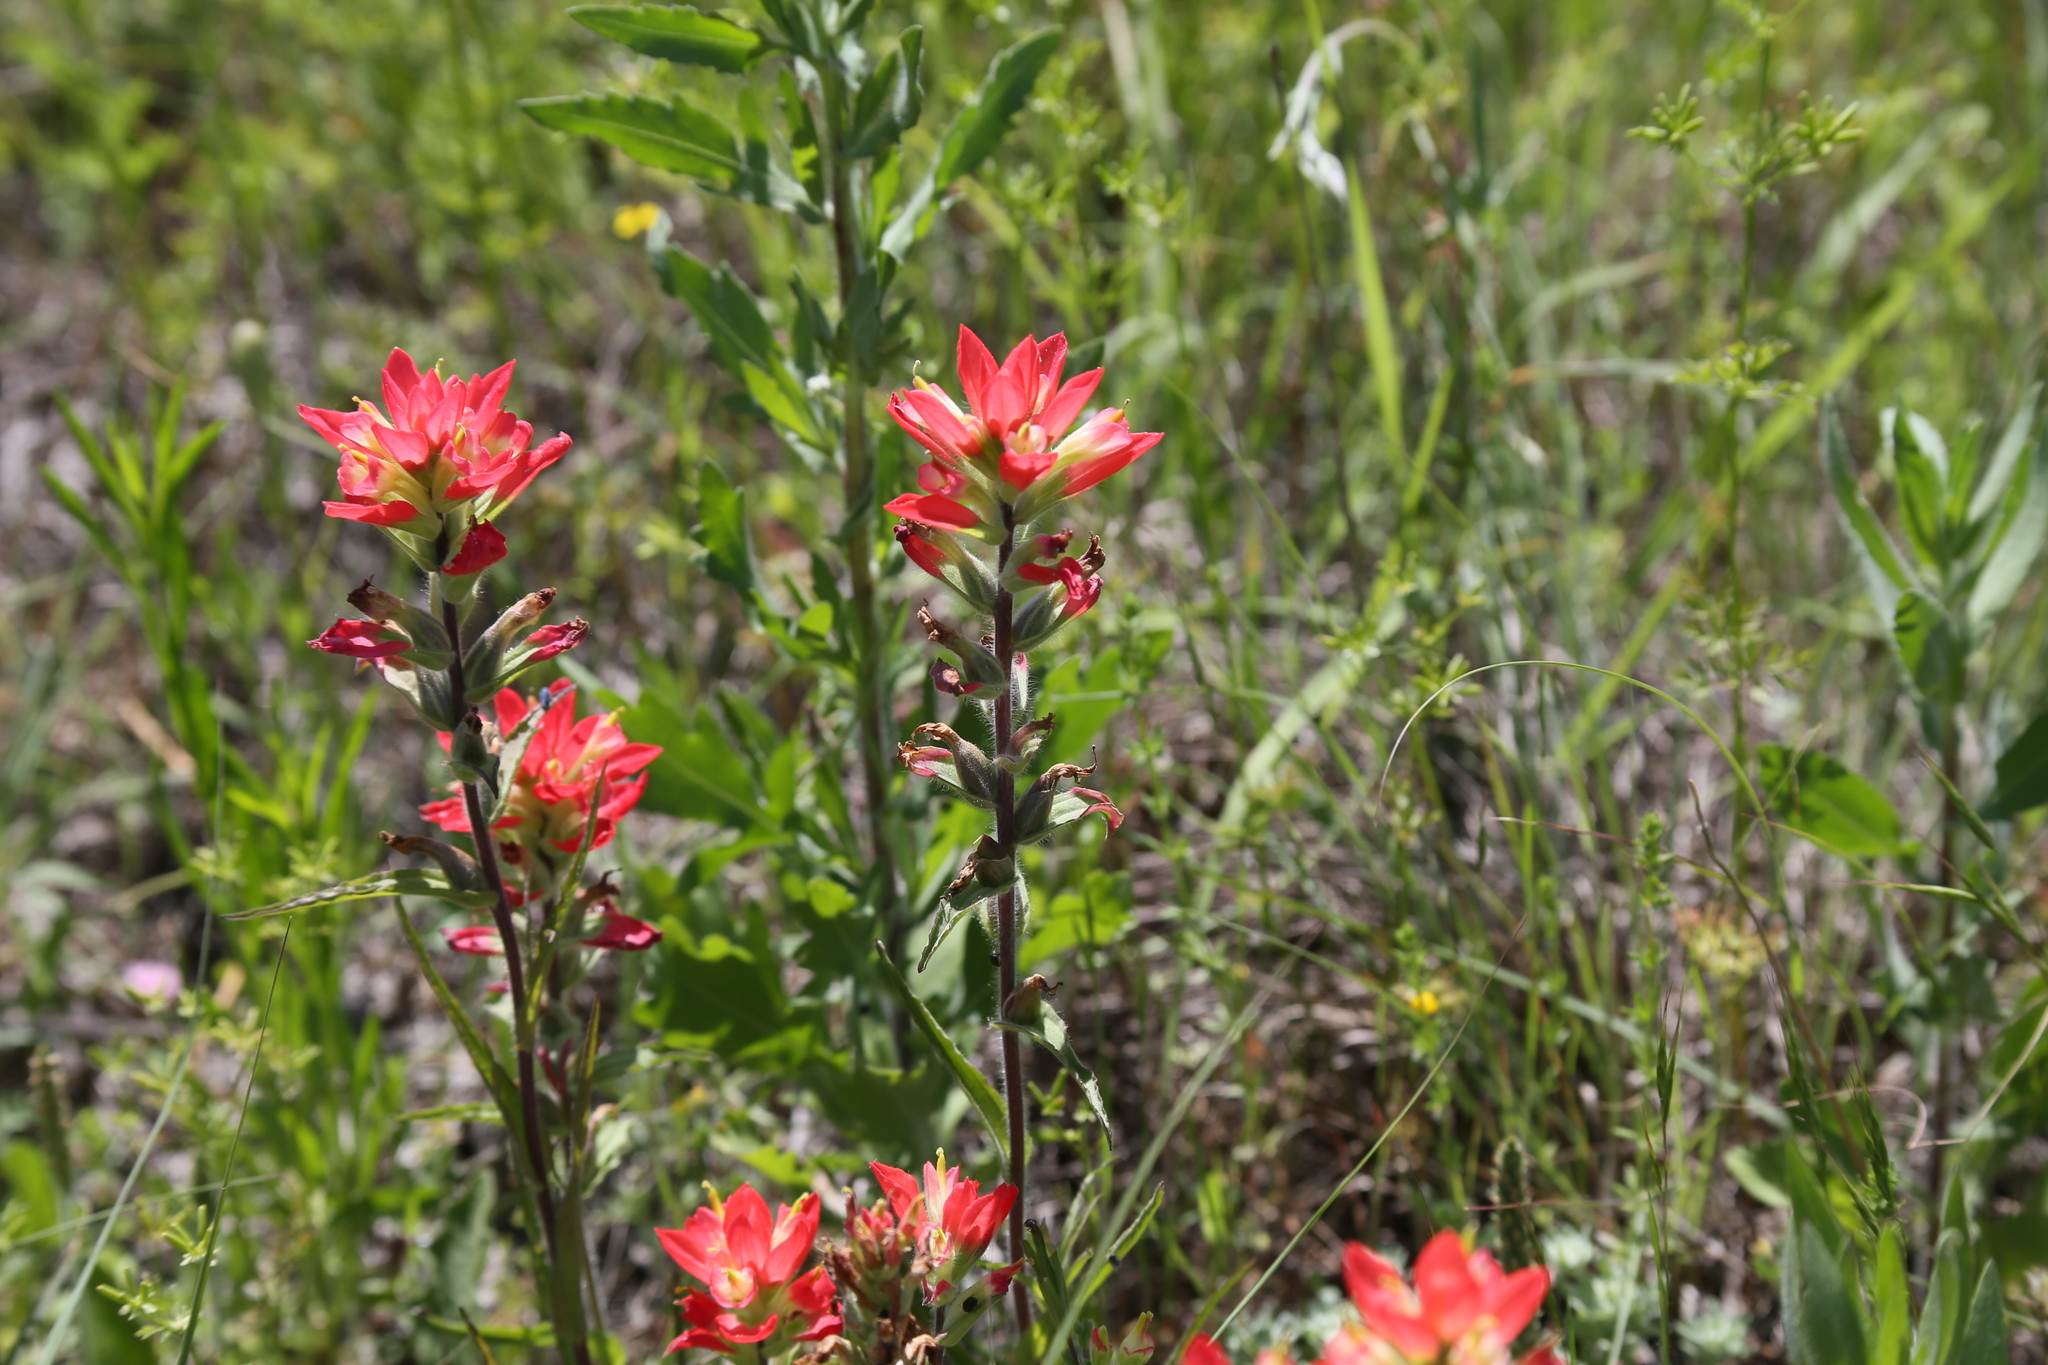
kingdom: Plantae
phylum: Tracheophyta
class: Magnoliopsida
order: Lamiales
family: Orobanchaceae
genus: Castilleja
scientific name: Castilleja indivisa
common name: Texas paintbrush
